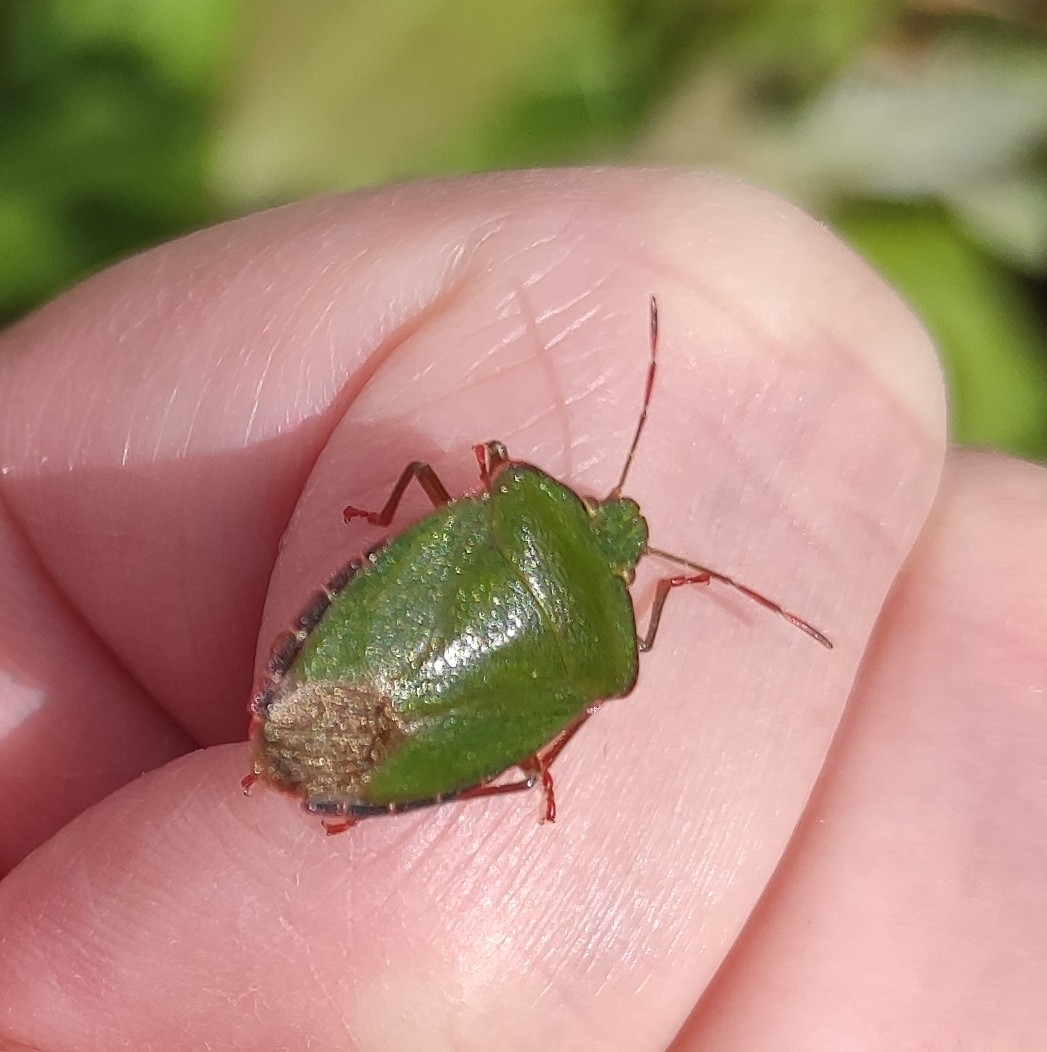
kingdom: Animalia
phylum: Arthropoda
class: Insecta
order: Hemiptera
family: Pentatomidae
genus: Palomena
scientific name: Palomena prasina
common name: Green shieldbug
